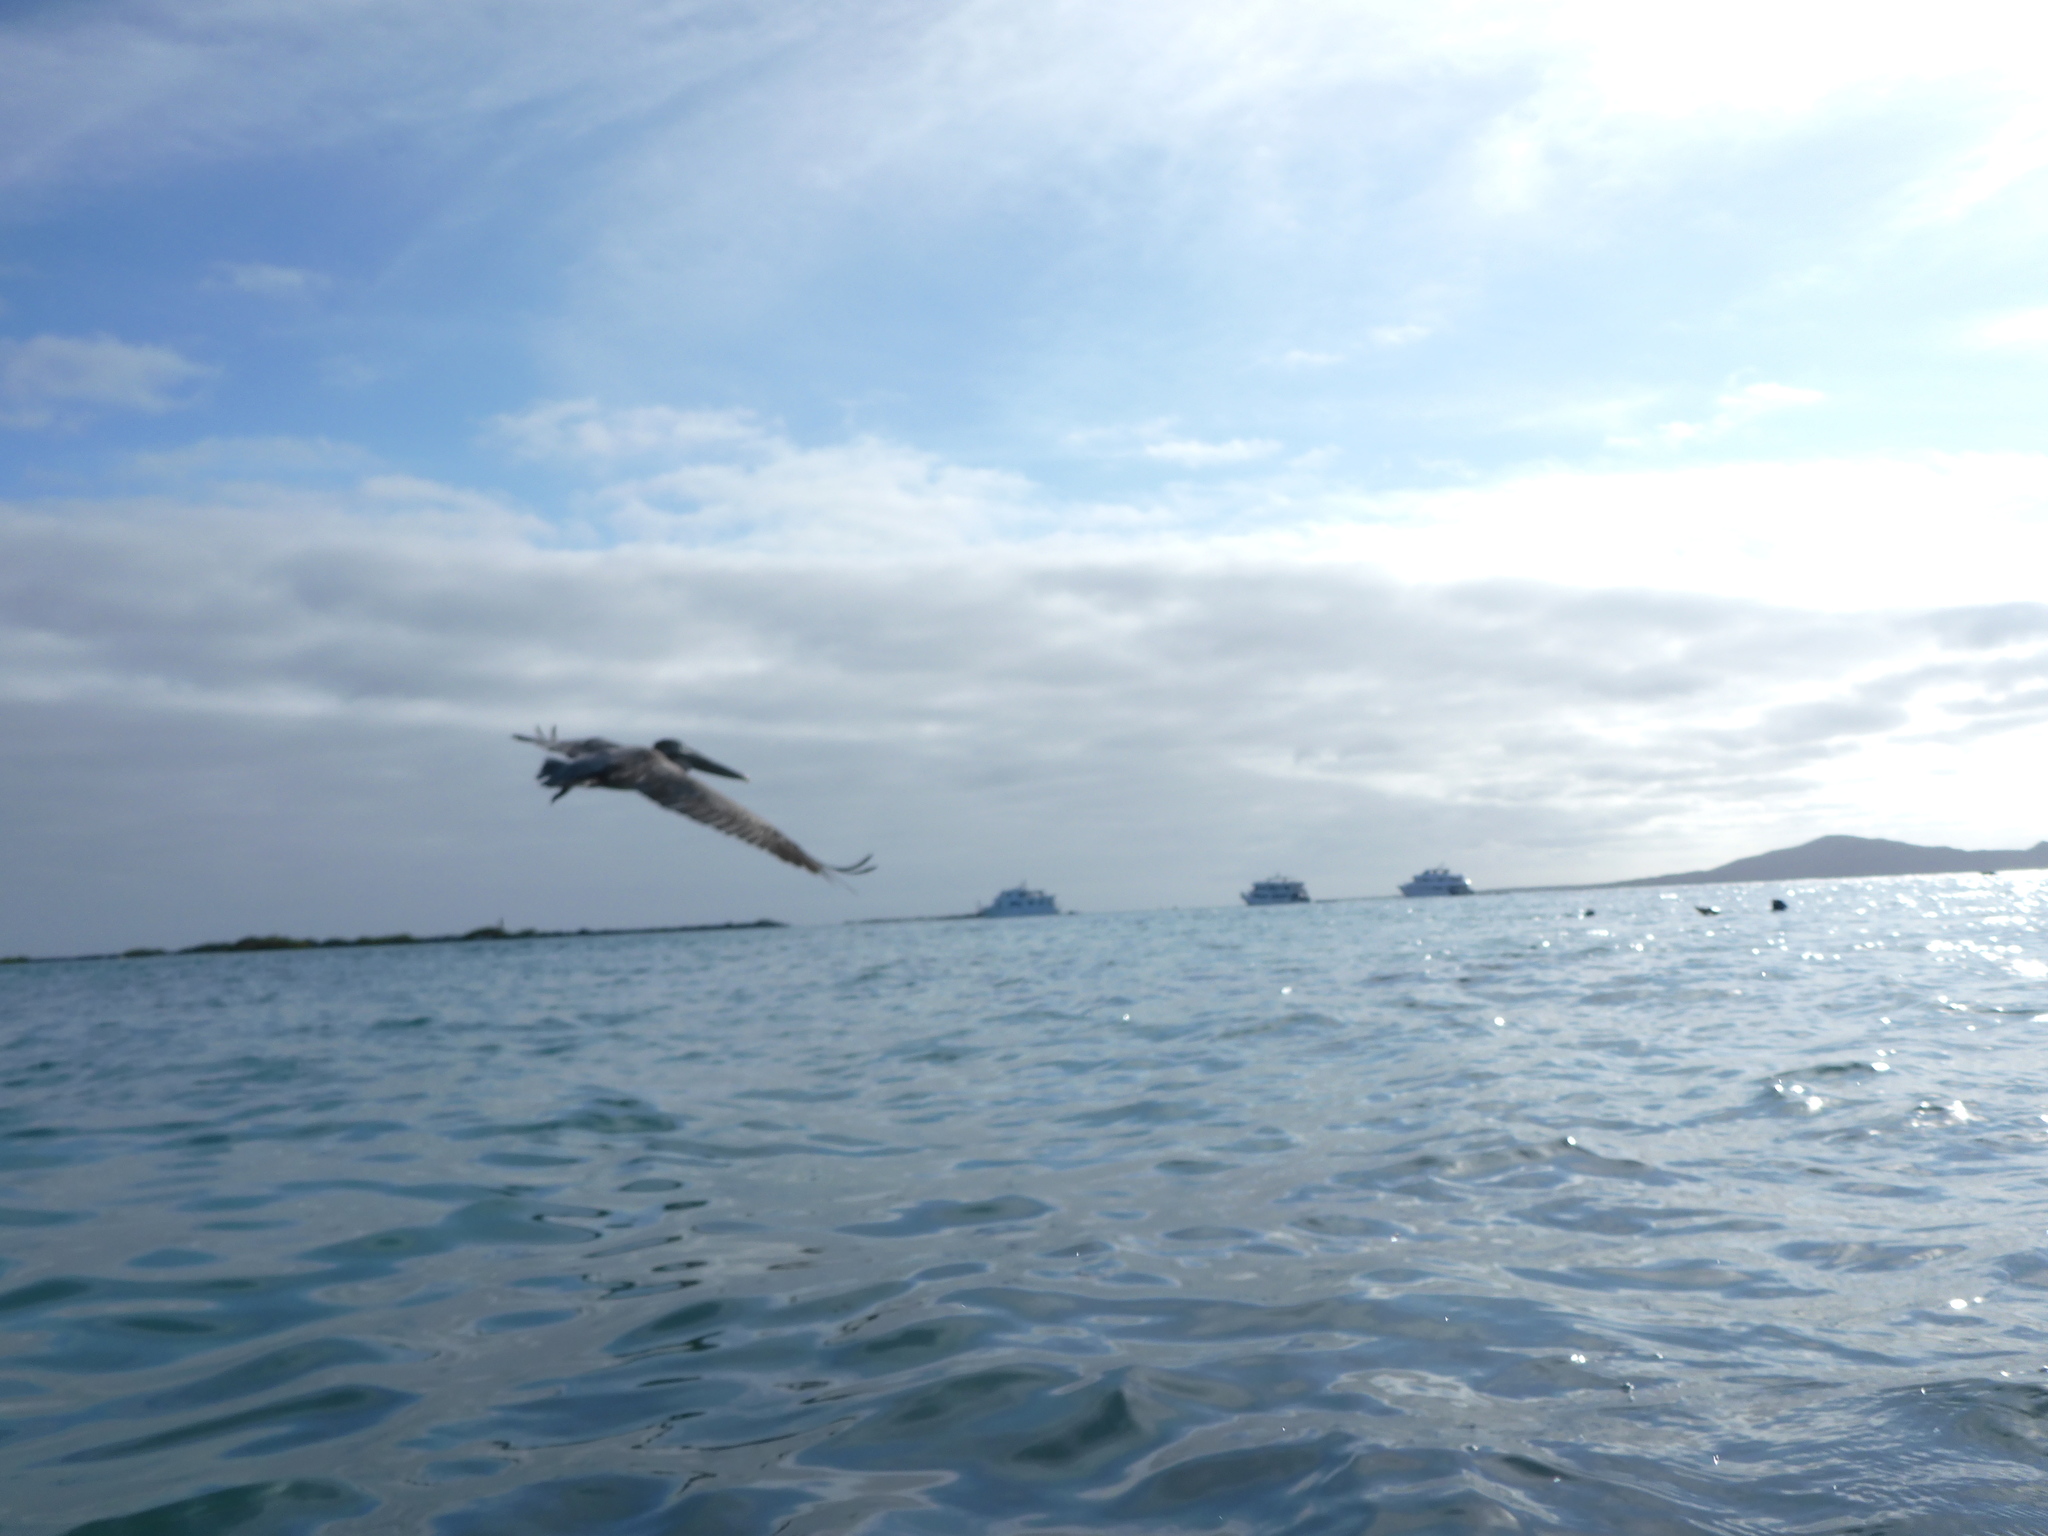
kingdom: Animalia
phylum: Chordata
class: Aves
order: Pelecaniformes
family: Pelecanidae
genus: Pelecanus
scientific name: Pelecanus occidentalis
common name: Brown pelican
